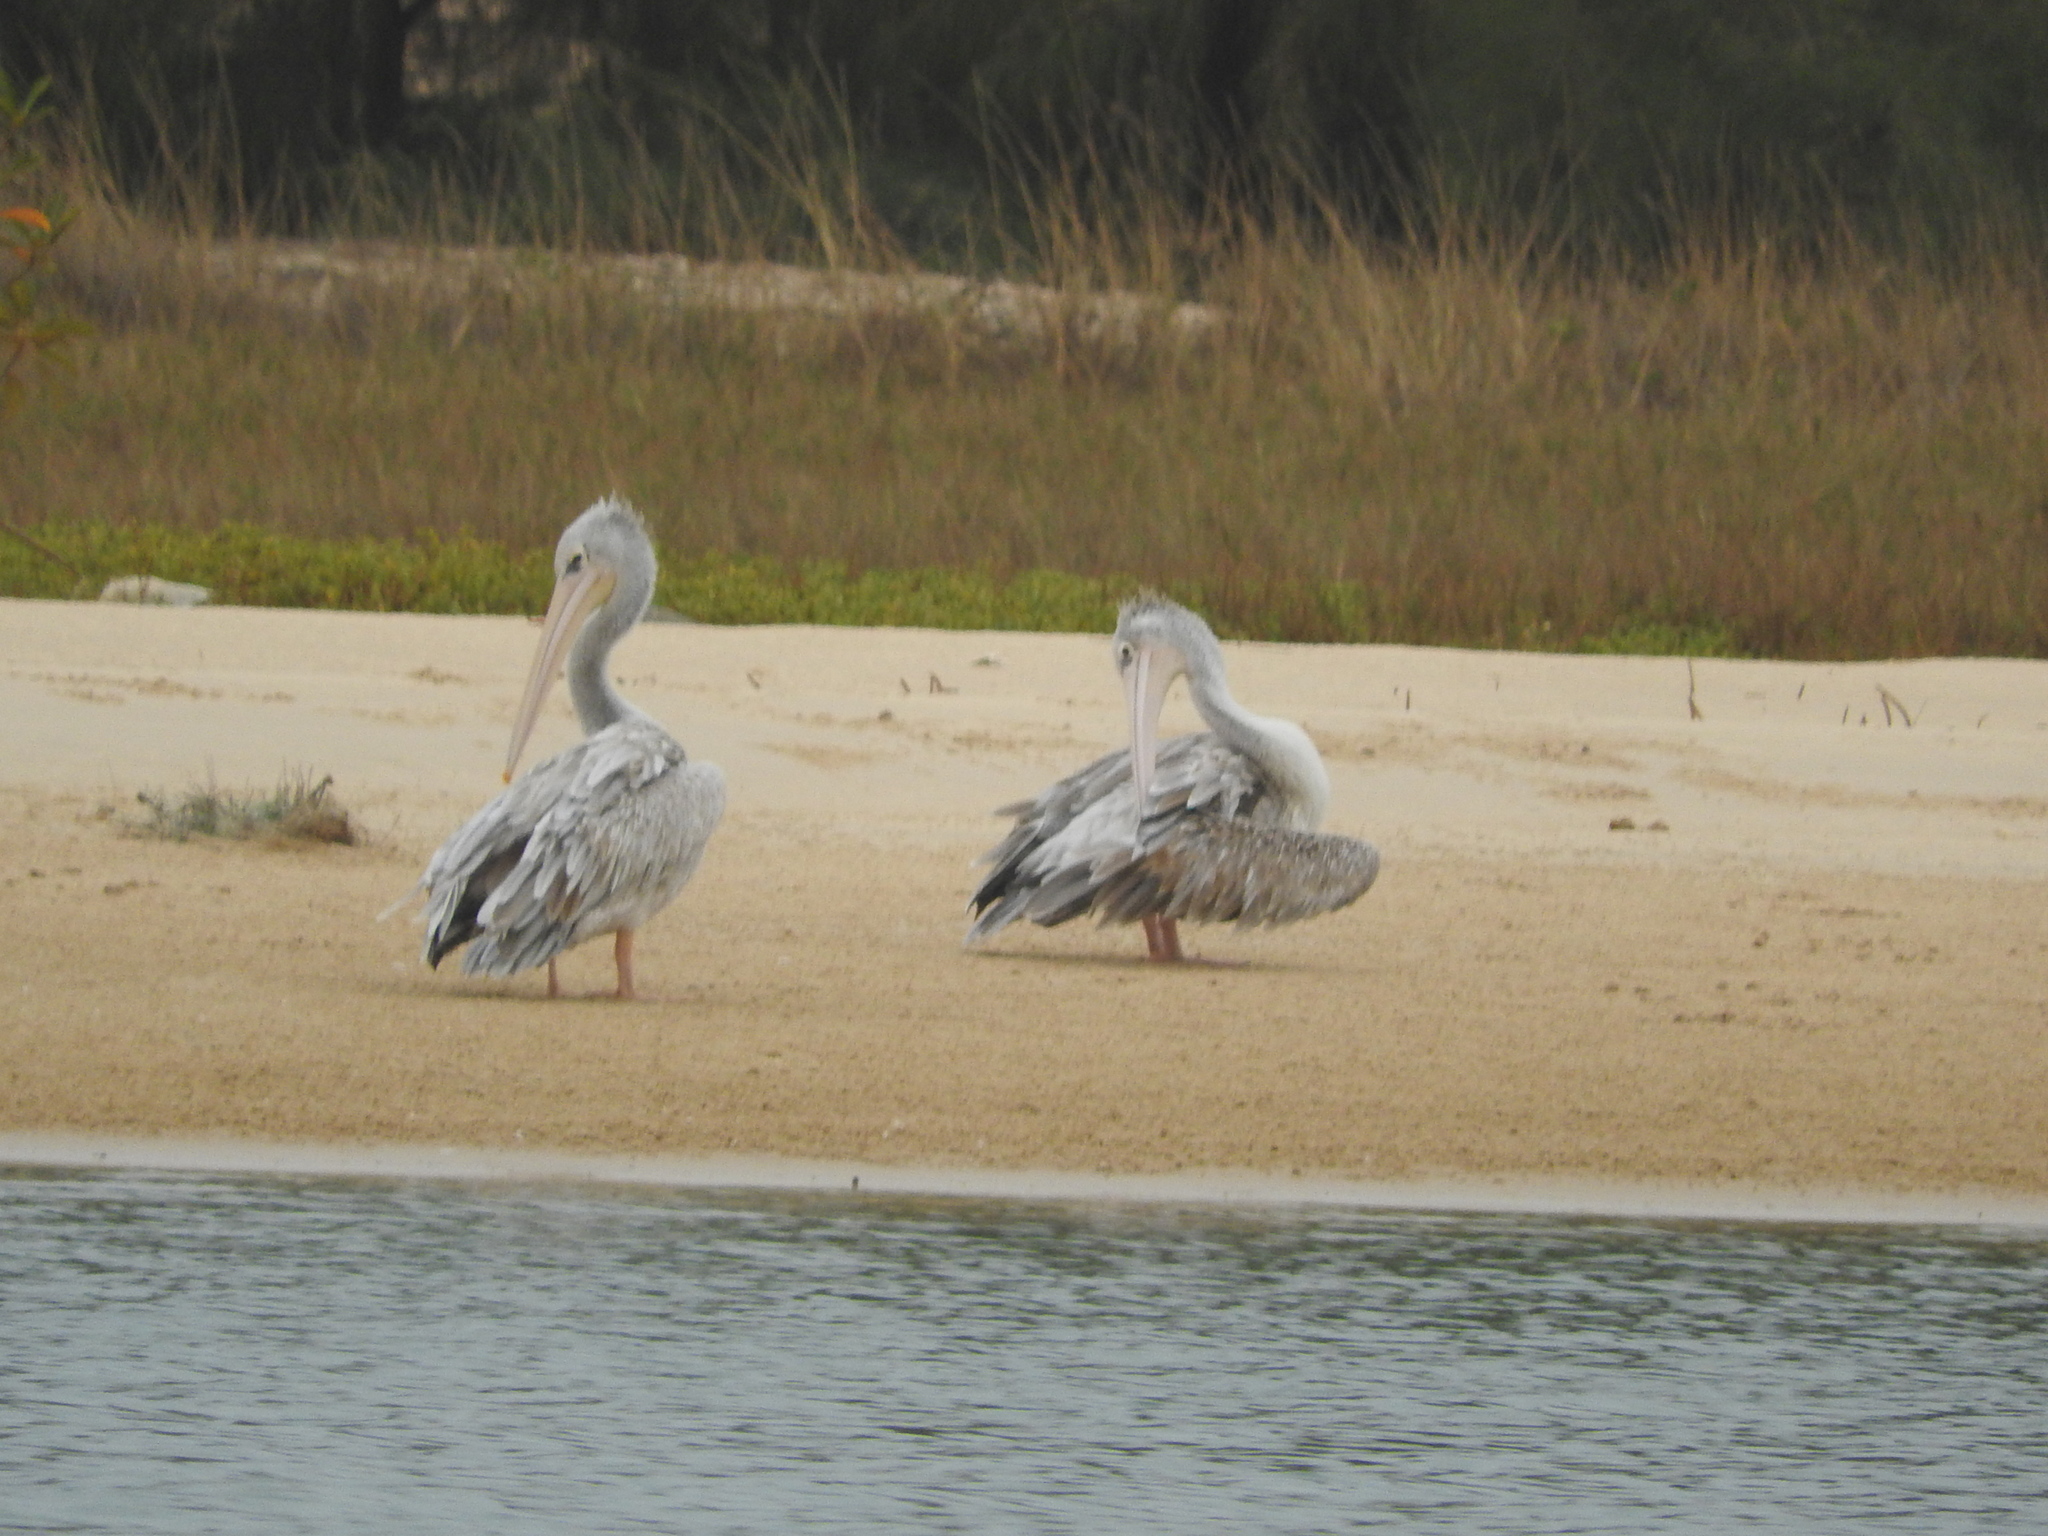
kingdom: Animalia
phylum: Chordata
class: Aves
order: Pelecaniformes
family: Pelecanidae
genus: Pelecanus
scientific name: Pelecanus rufescens
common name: Pink-backed pelican
